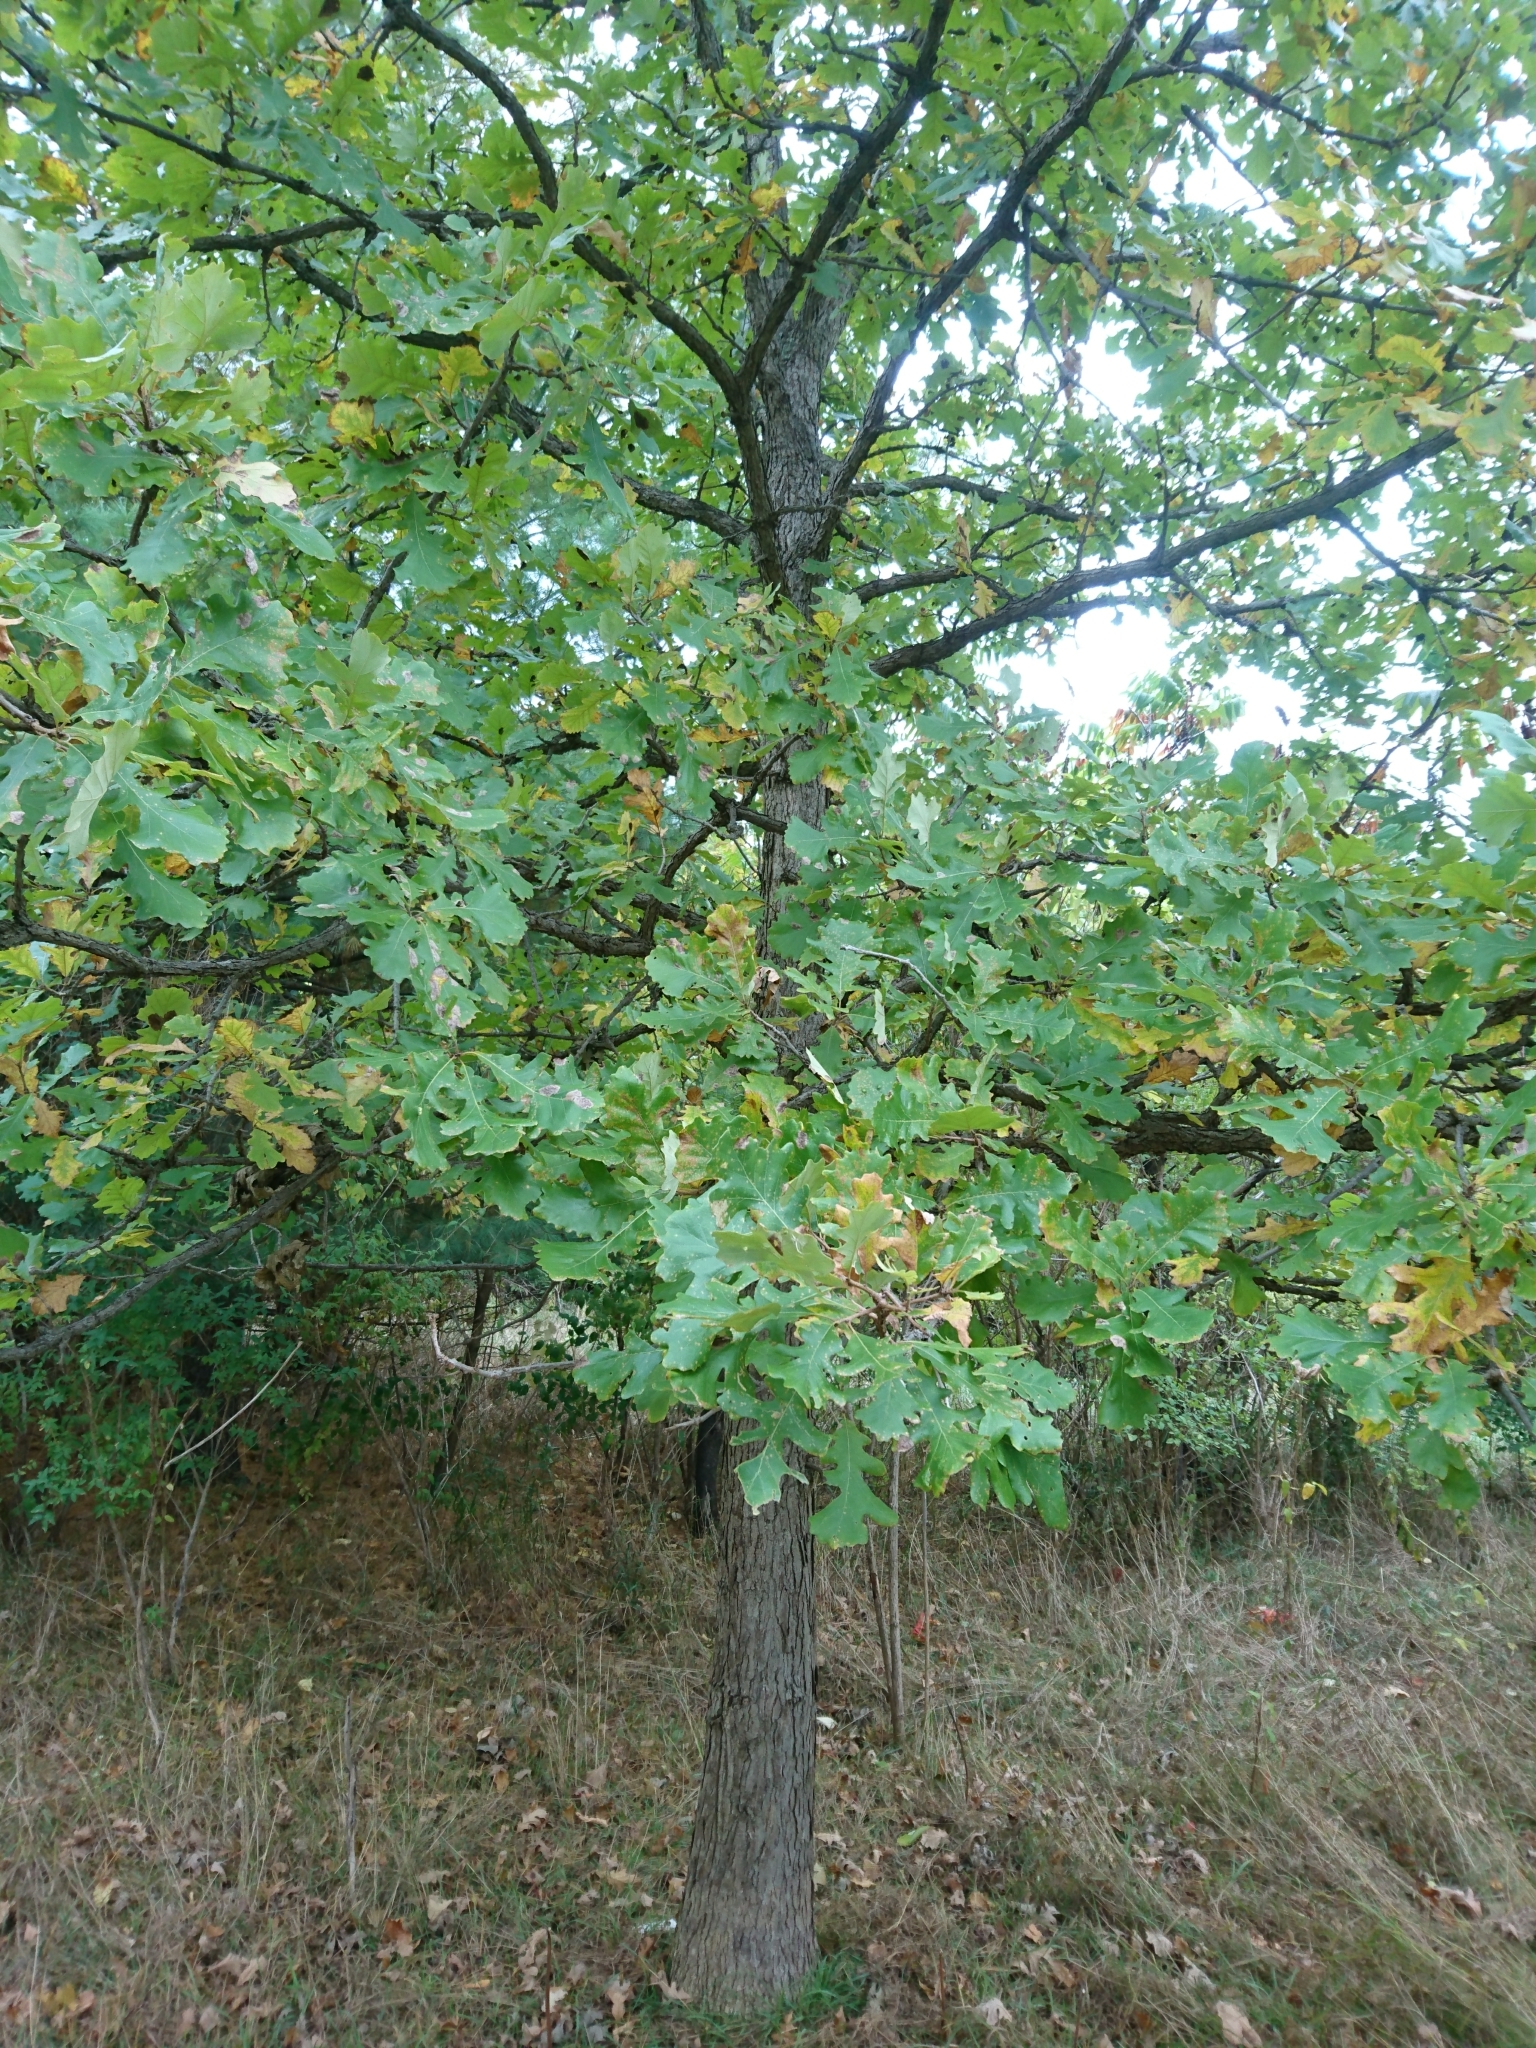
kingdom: Plantae
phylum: Tracheophyta
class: Magnoliopsida
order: Fagales
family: Fagaceae
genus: Quercus
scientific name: Quercus macrocarpa
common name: Bur oak
